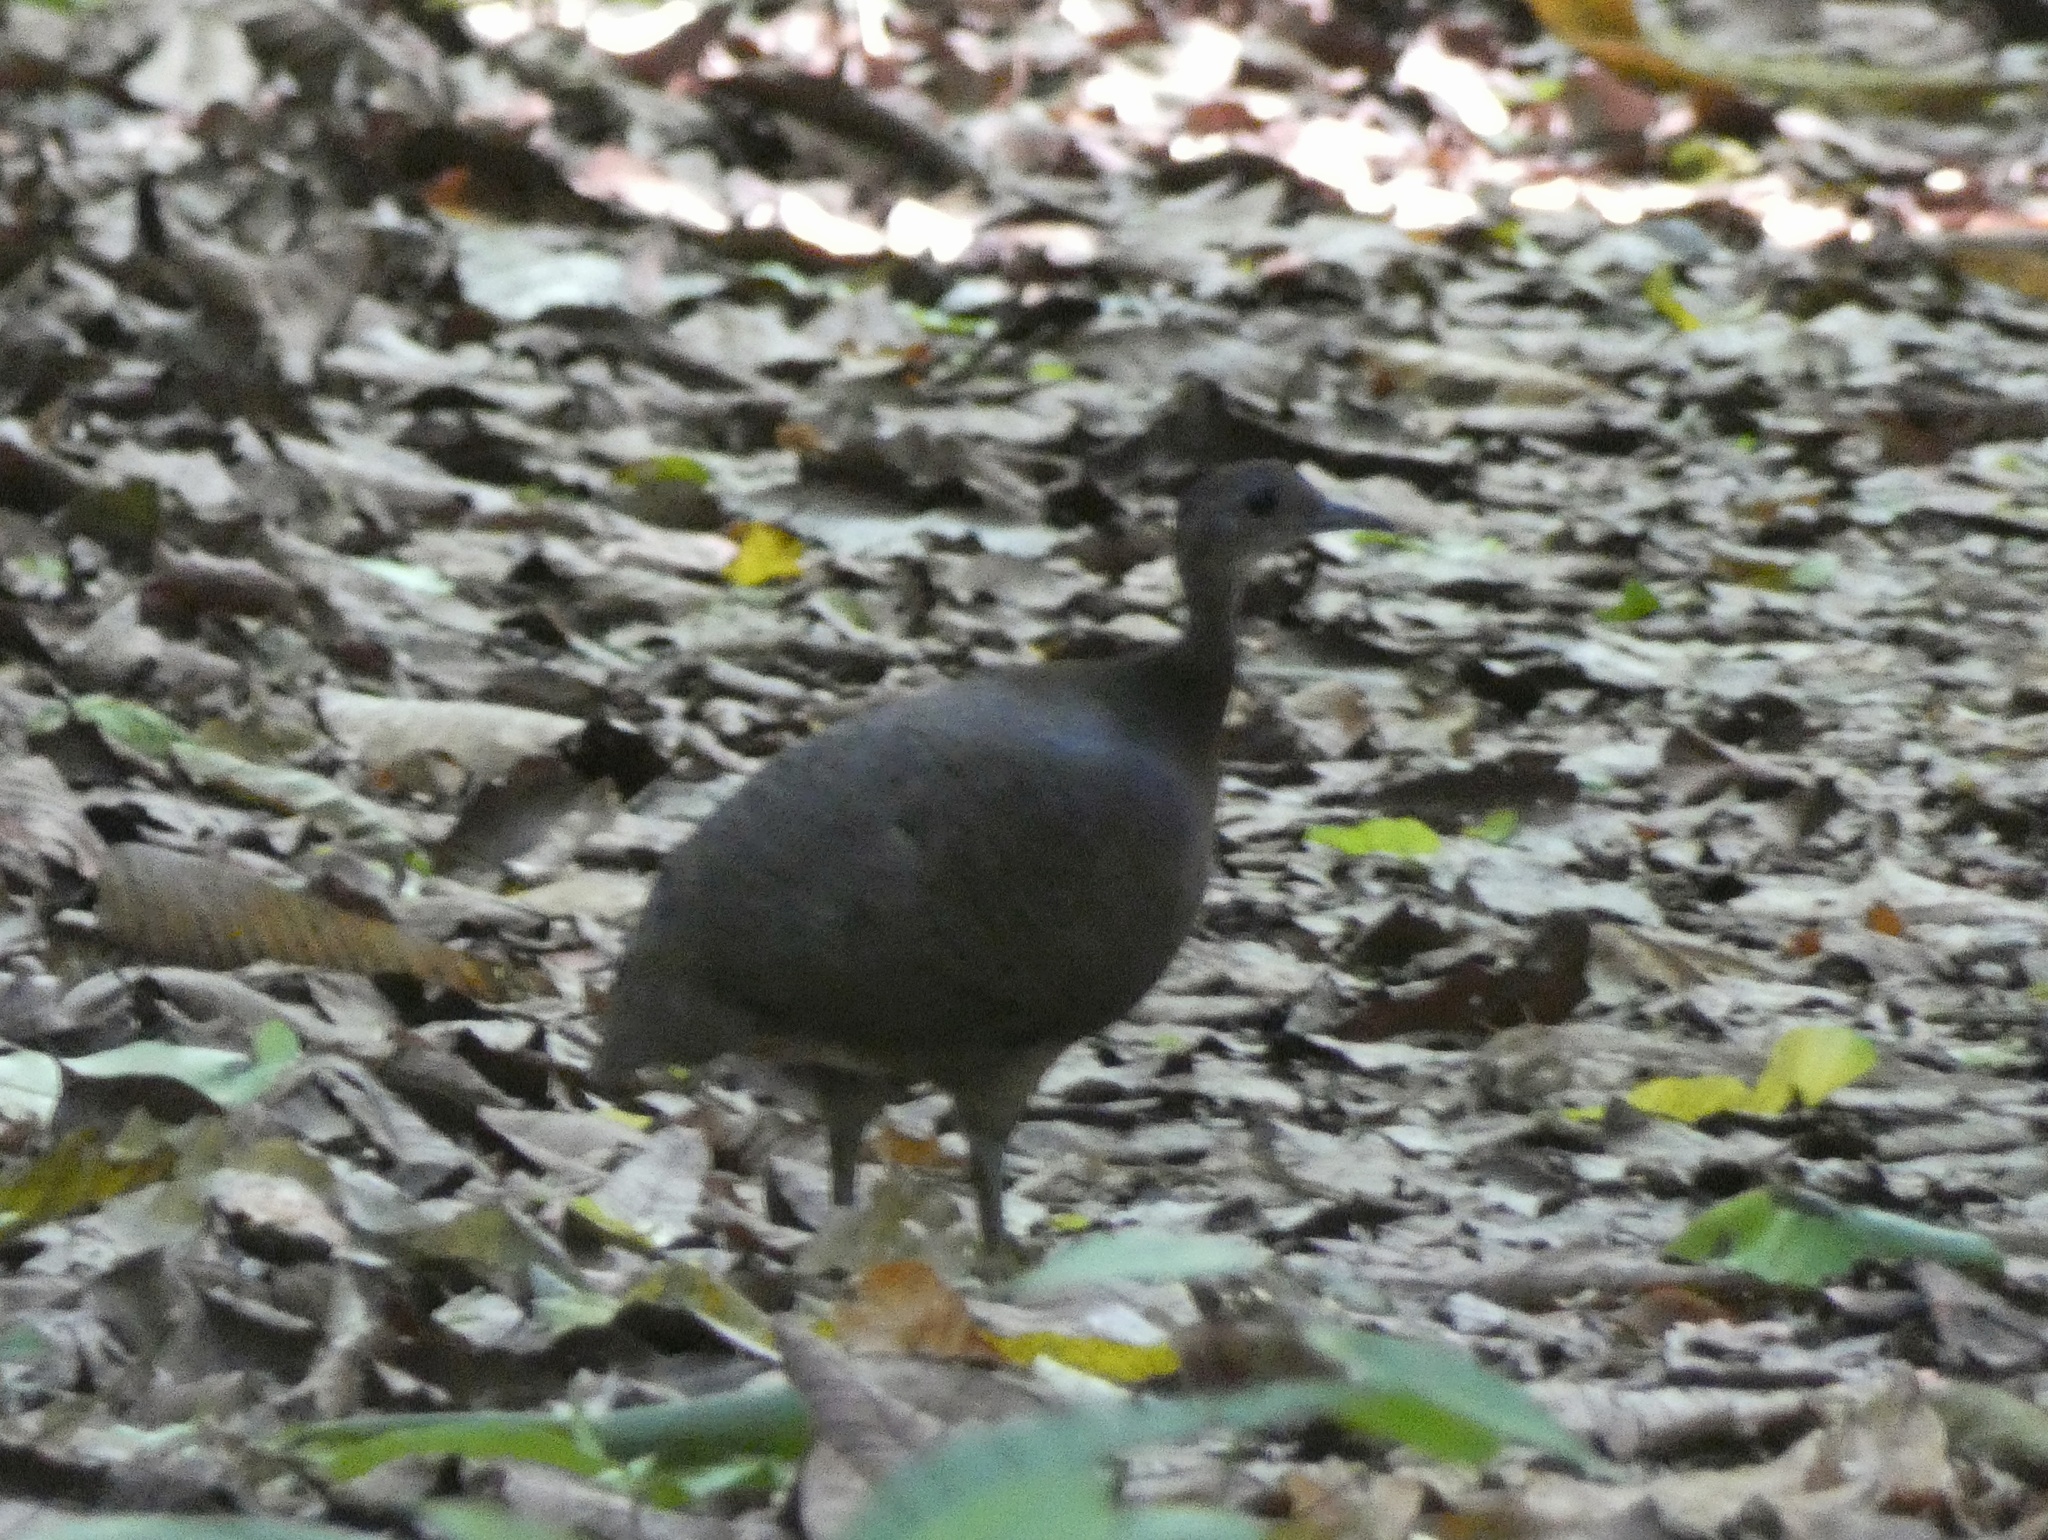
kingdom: Animalia
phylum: Chordata
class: Aves
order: Tinamiformes
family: Tinamidae
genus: Tinamus
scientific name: Tinamus major
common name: Great tinamou
